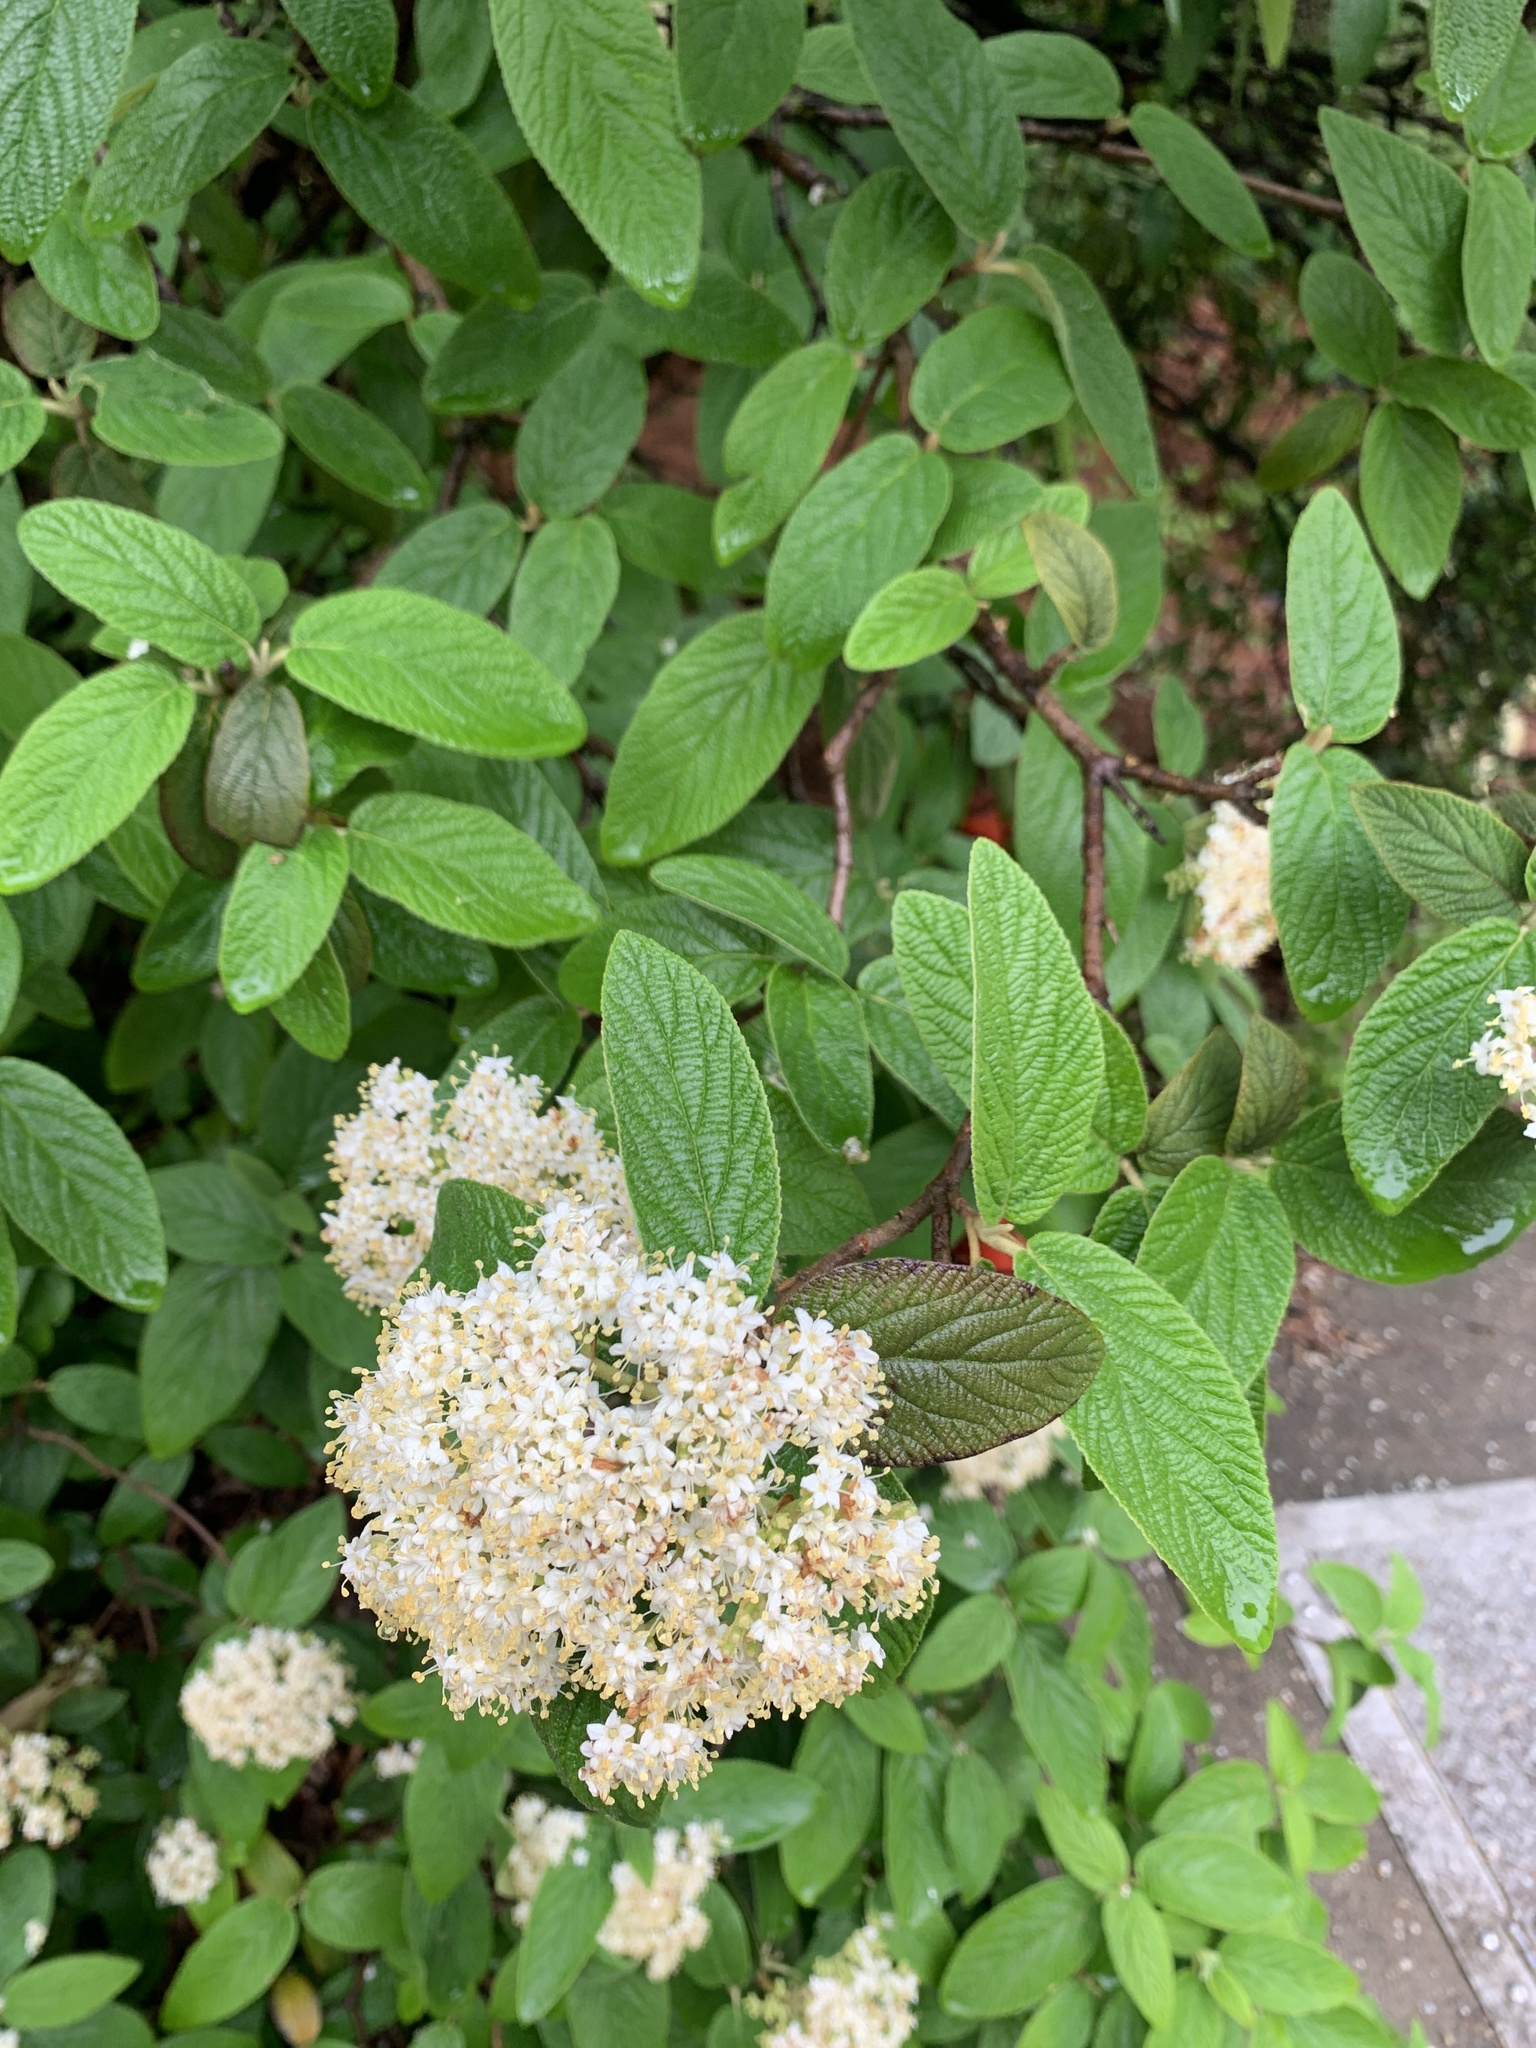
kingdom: Plantae
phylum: Tracheophyta
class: Magnoliopsida
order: Dipsacales
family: Viburnaceae
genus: Viburnum
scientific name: Viburnum lantana
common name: Wayfaring tree
